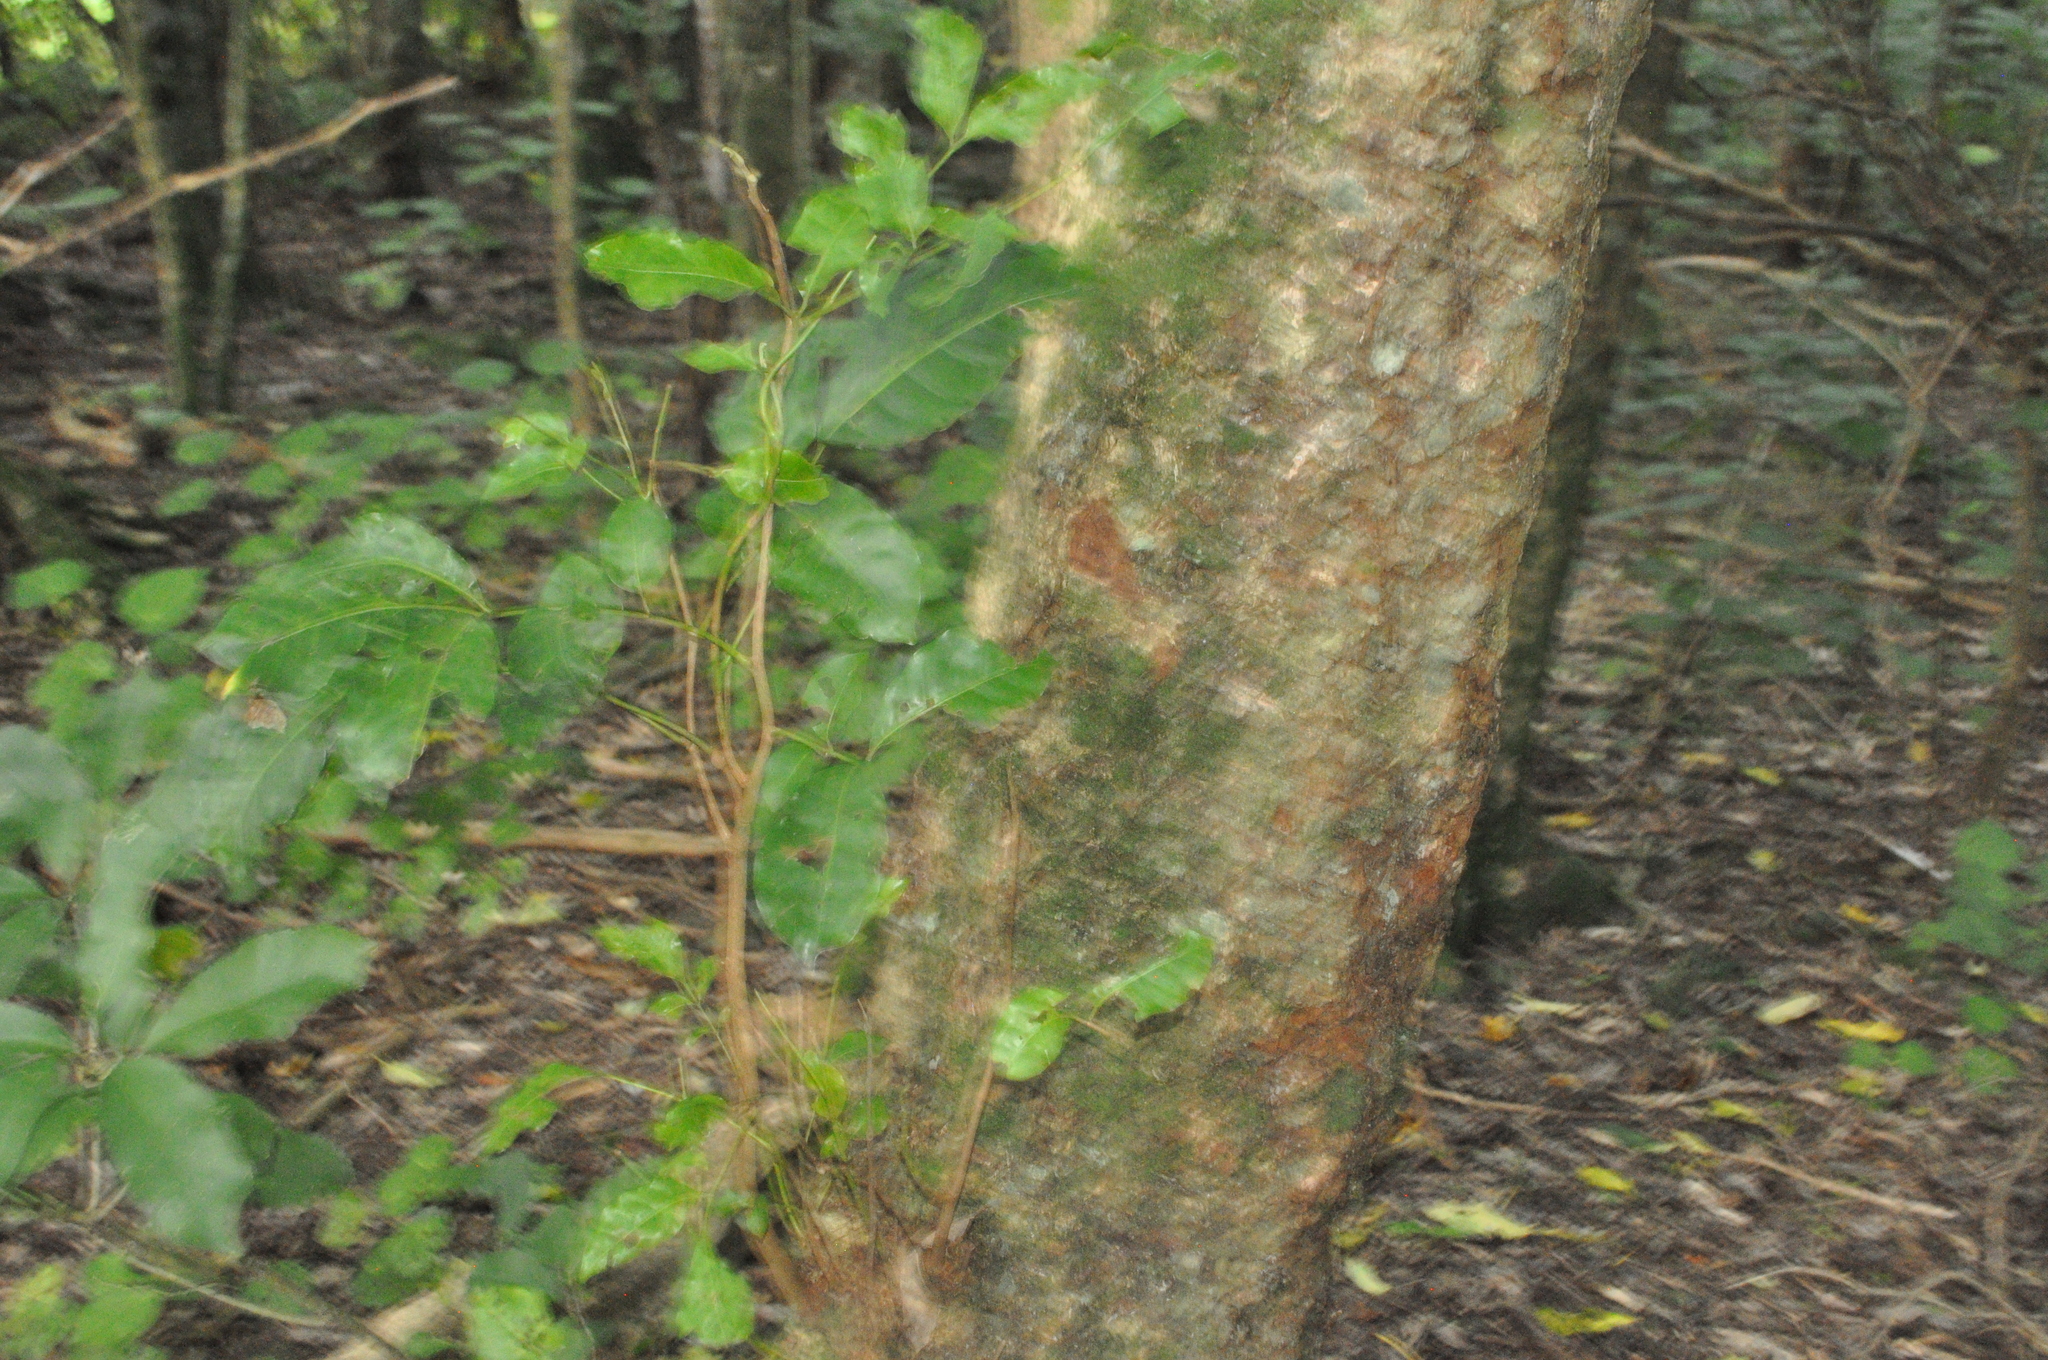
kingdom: Plantae
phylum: Tracheophyta
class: Magnoliopsida
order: Sapindales
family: Meliaceae
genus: Didymocheton
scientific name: Didymocheton spectabilis
